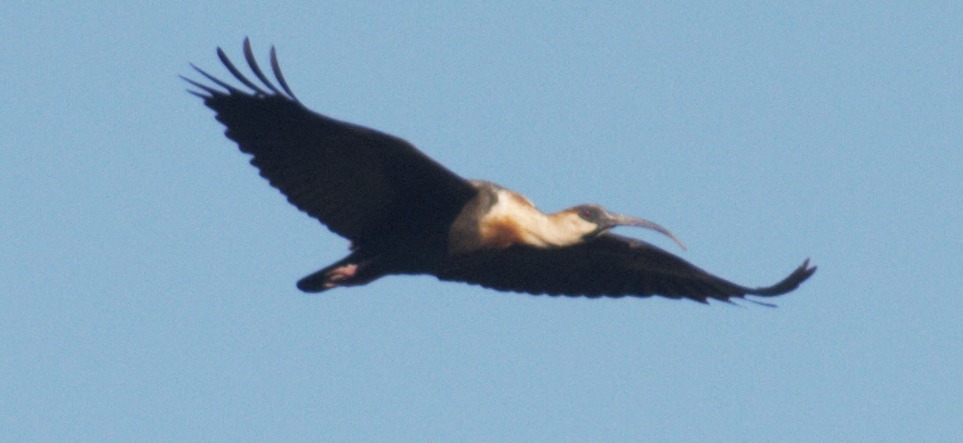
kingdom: Animalia
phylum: Chordata
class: Aves
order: Pelecaniformes
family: Threskiornithidae
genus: Theristicus
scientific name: Theristicus caudatus
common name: Buff-necked ibis
